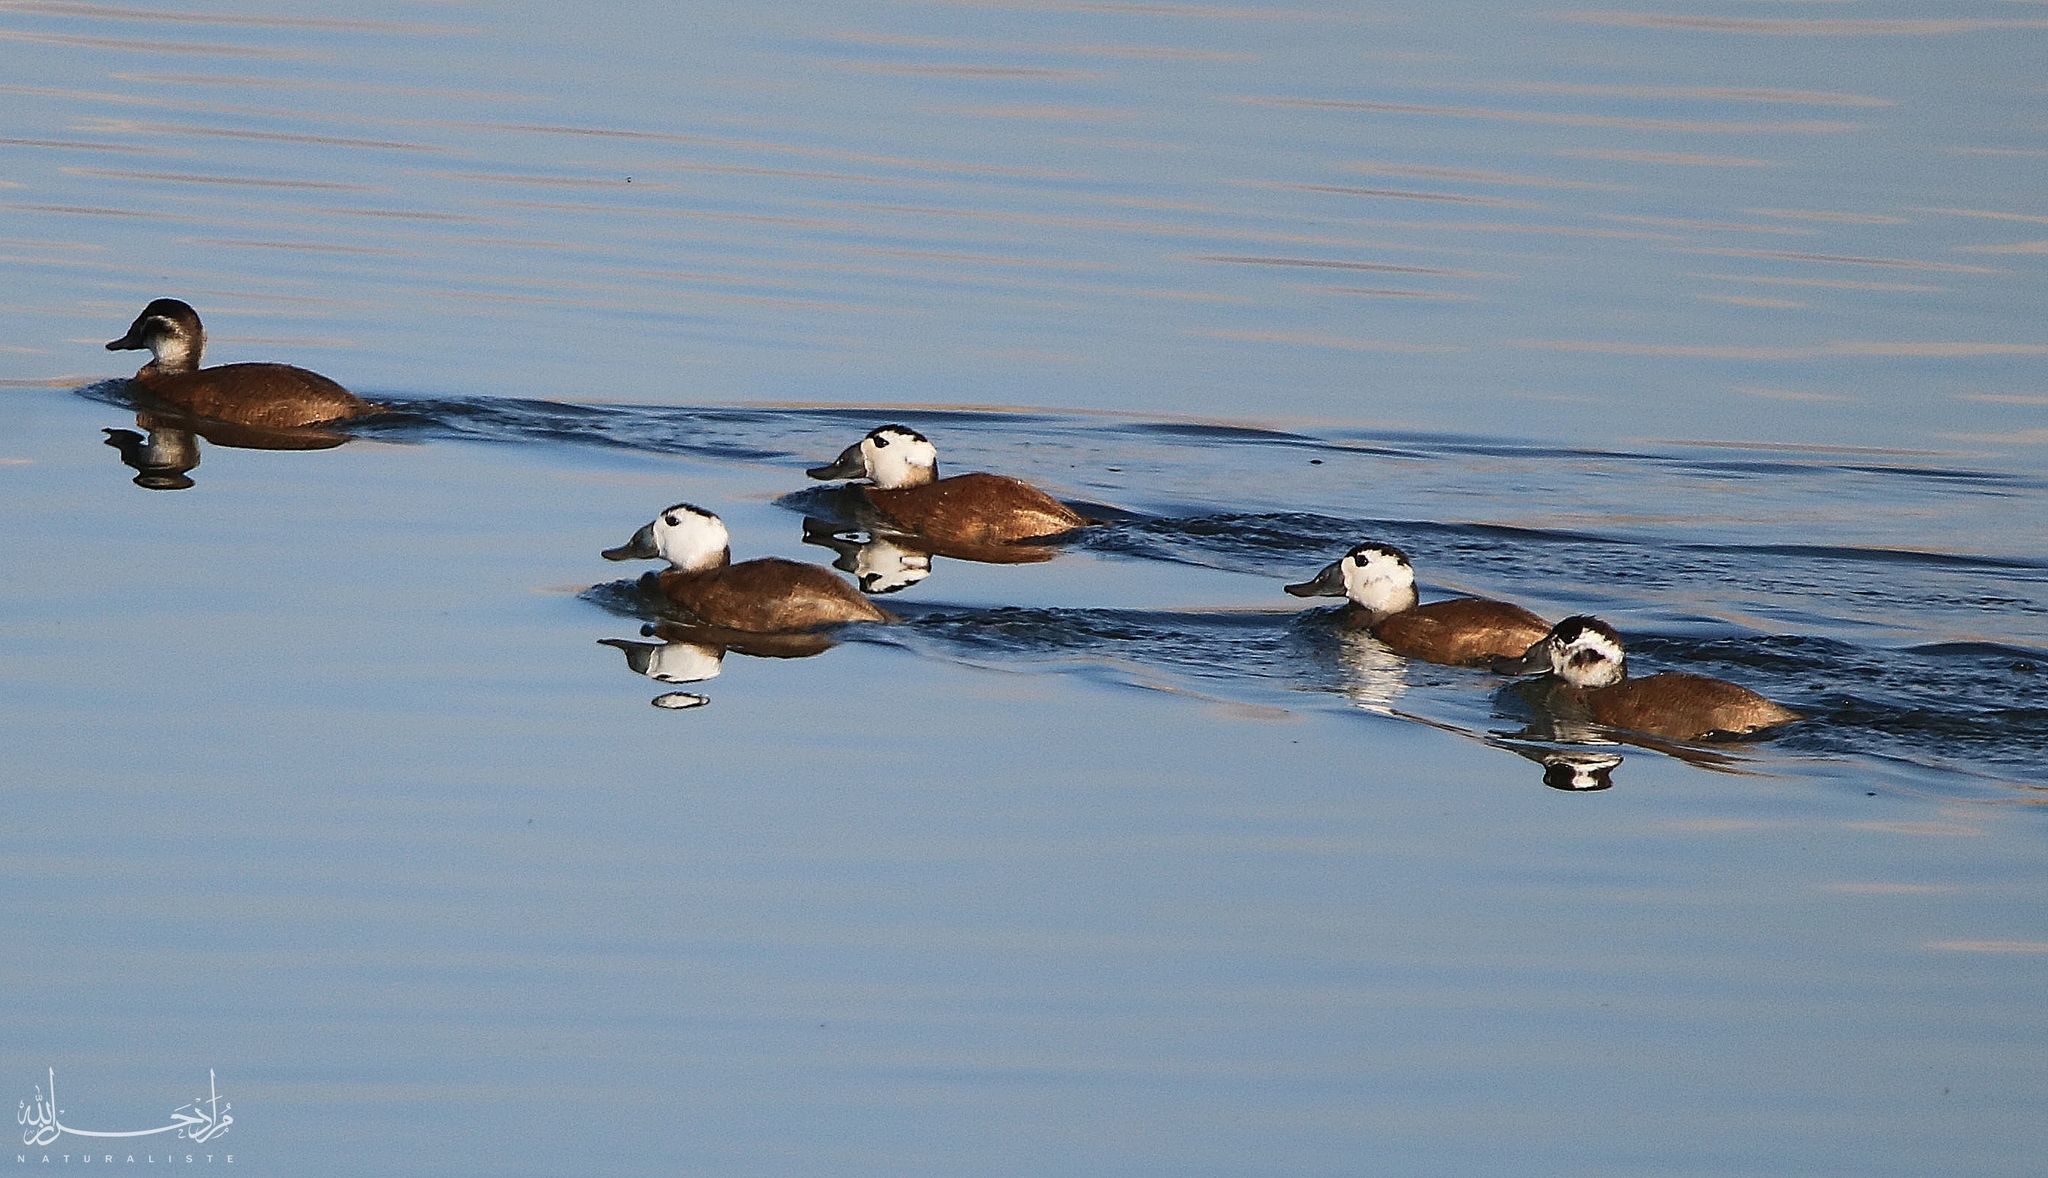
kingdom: Animalia
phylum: Chordata
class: Aves
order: Anseriformes
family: Anatidae
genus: Oxyura
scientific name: Oxyura leucocephala
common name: White-headed duck
